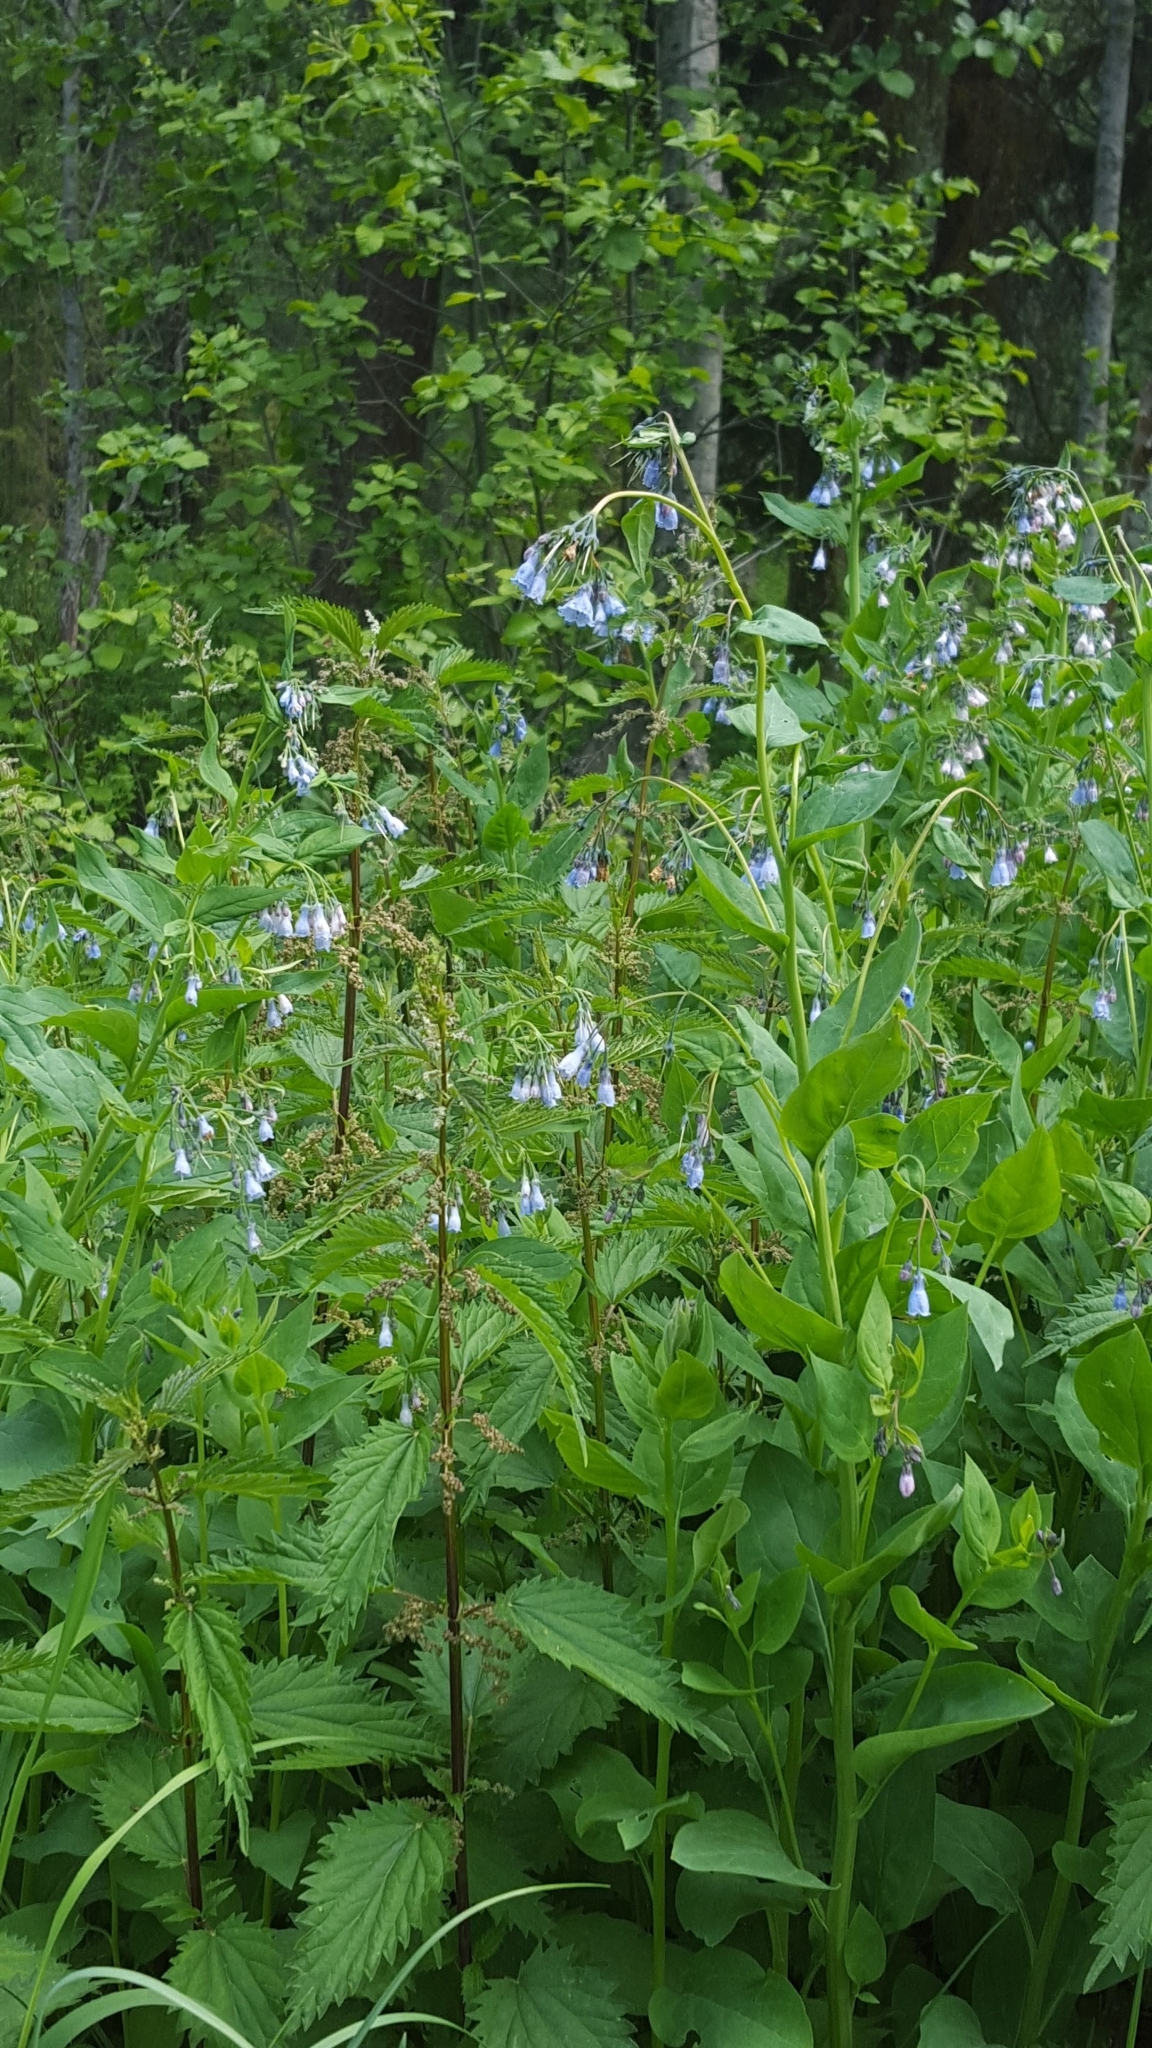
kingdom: Plantae
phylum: Tracheophyta
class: Magnoliopsida
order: Boraginales
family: Boraginaceae
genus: Mertensia
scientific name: Mertensia paniculata
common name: Panicled bluebells
